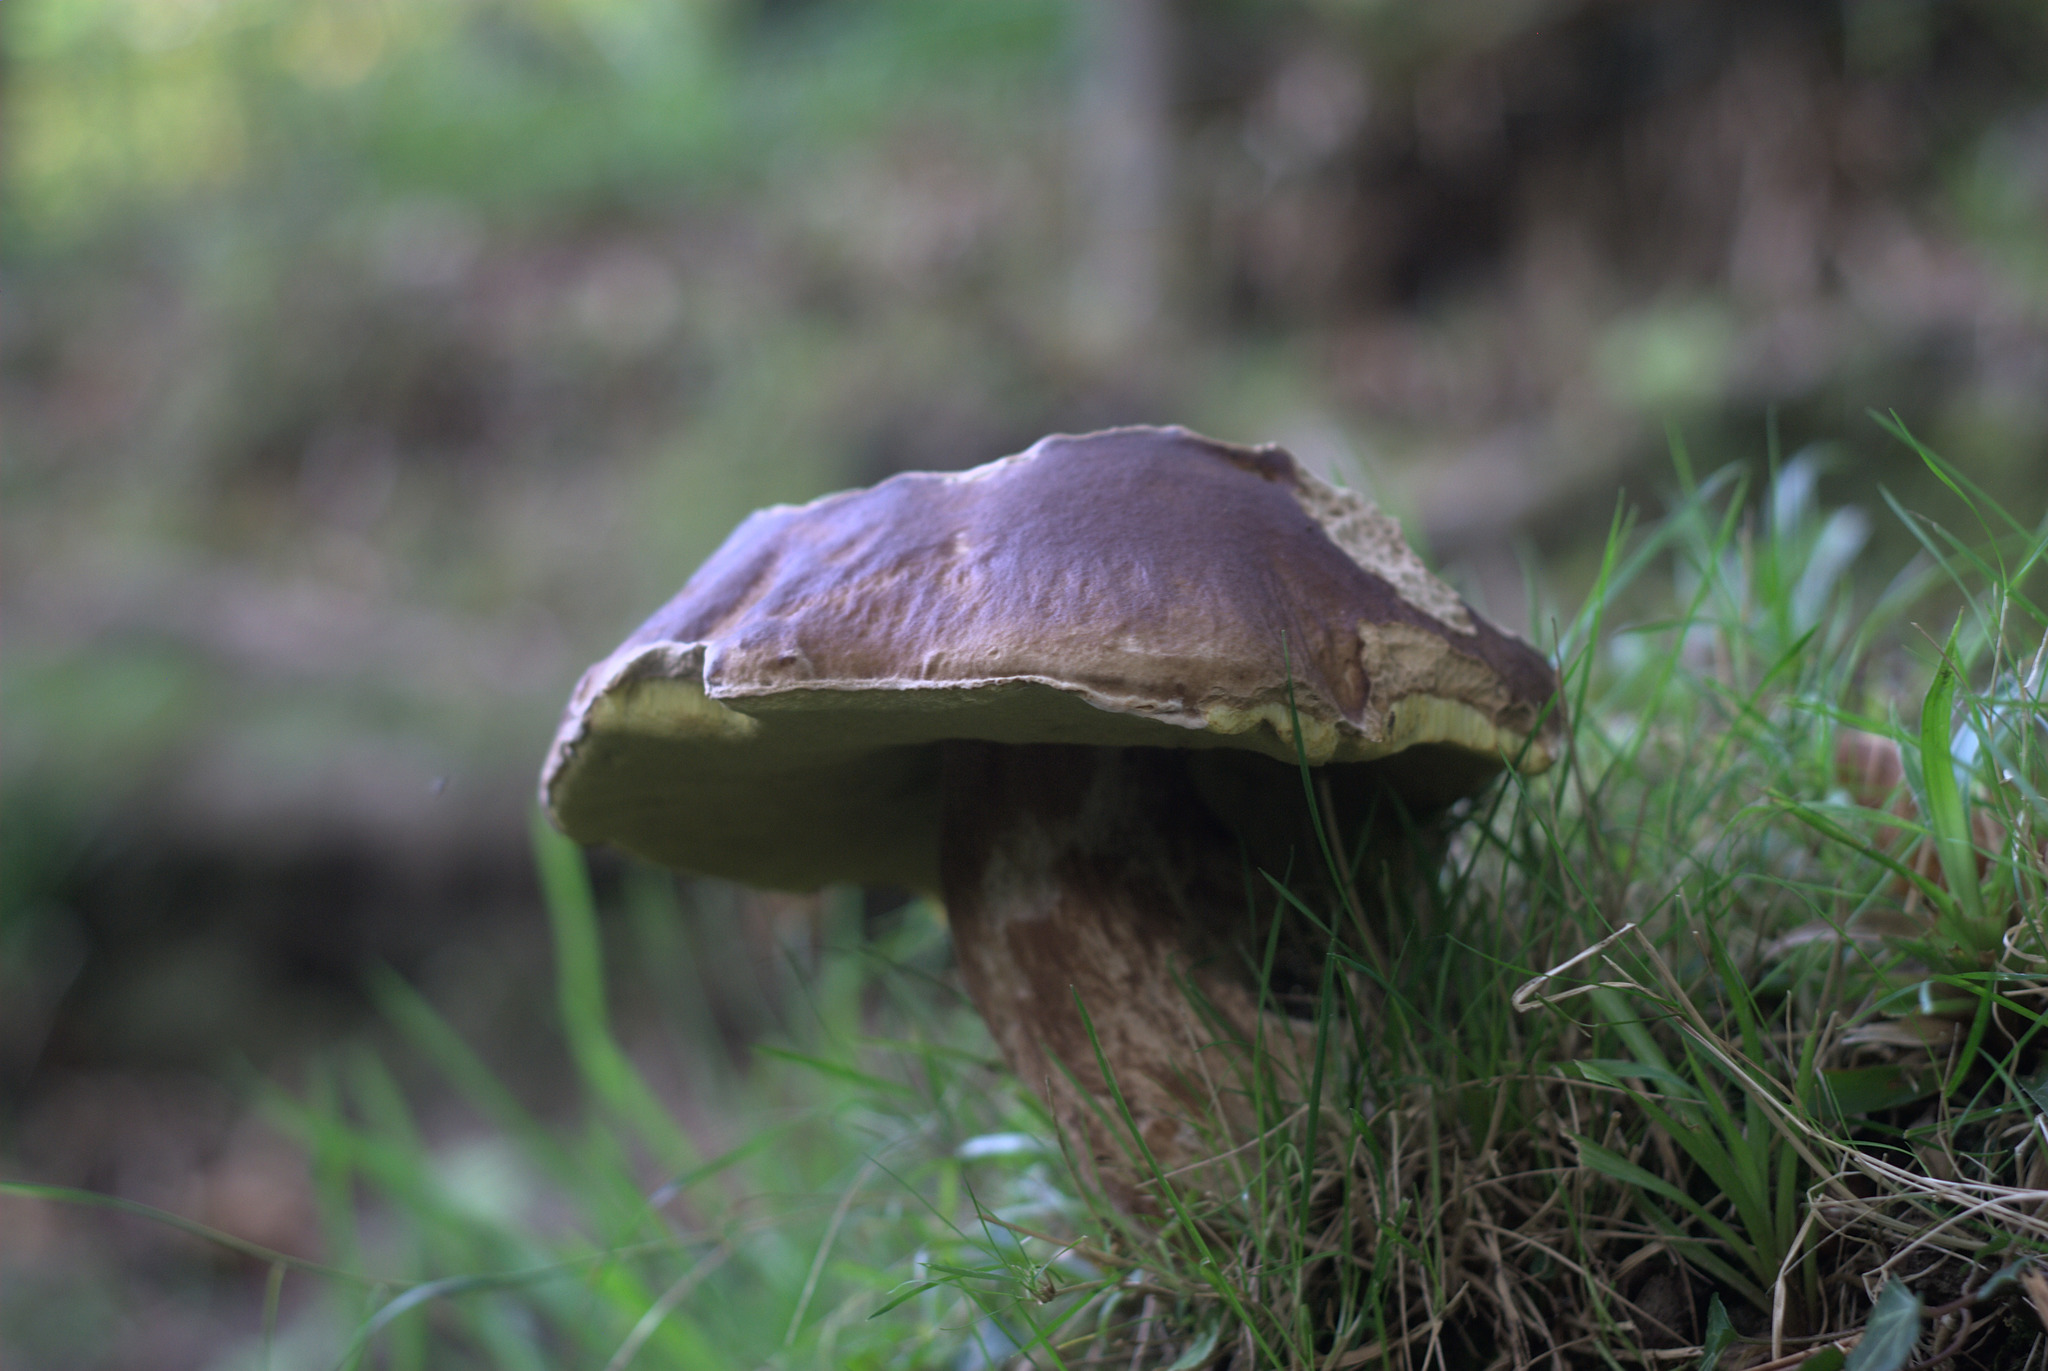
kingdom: Fungi
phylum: Basidiomycota
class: Agaricomycetes
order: Boletales
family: Boletaceae
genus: Boletus
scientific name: Boletus edulis
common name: Cep
